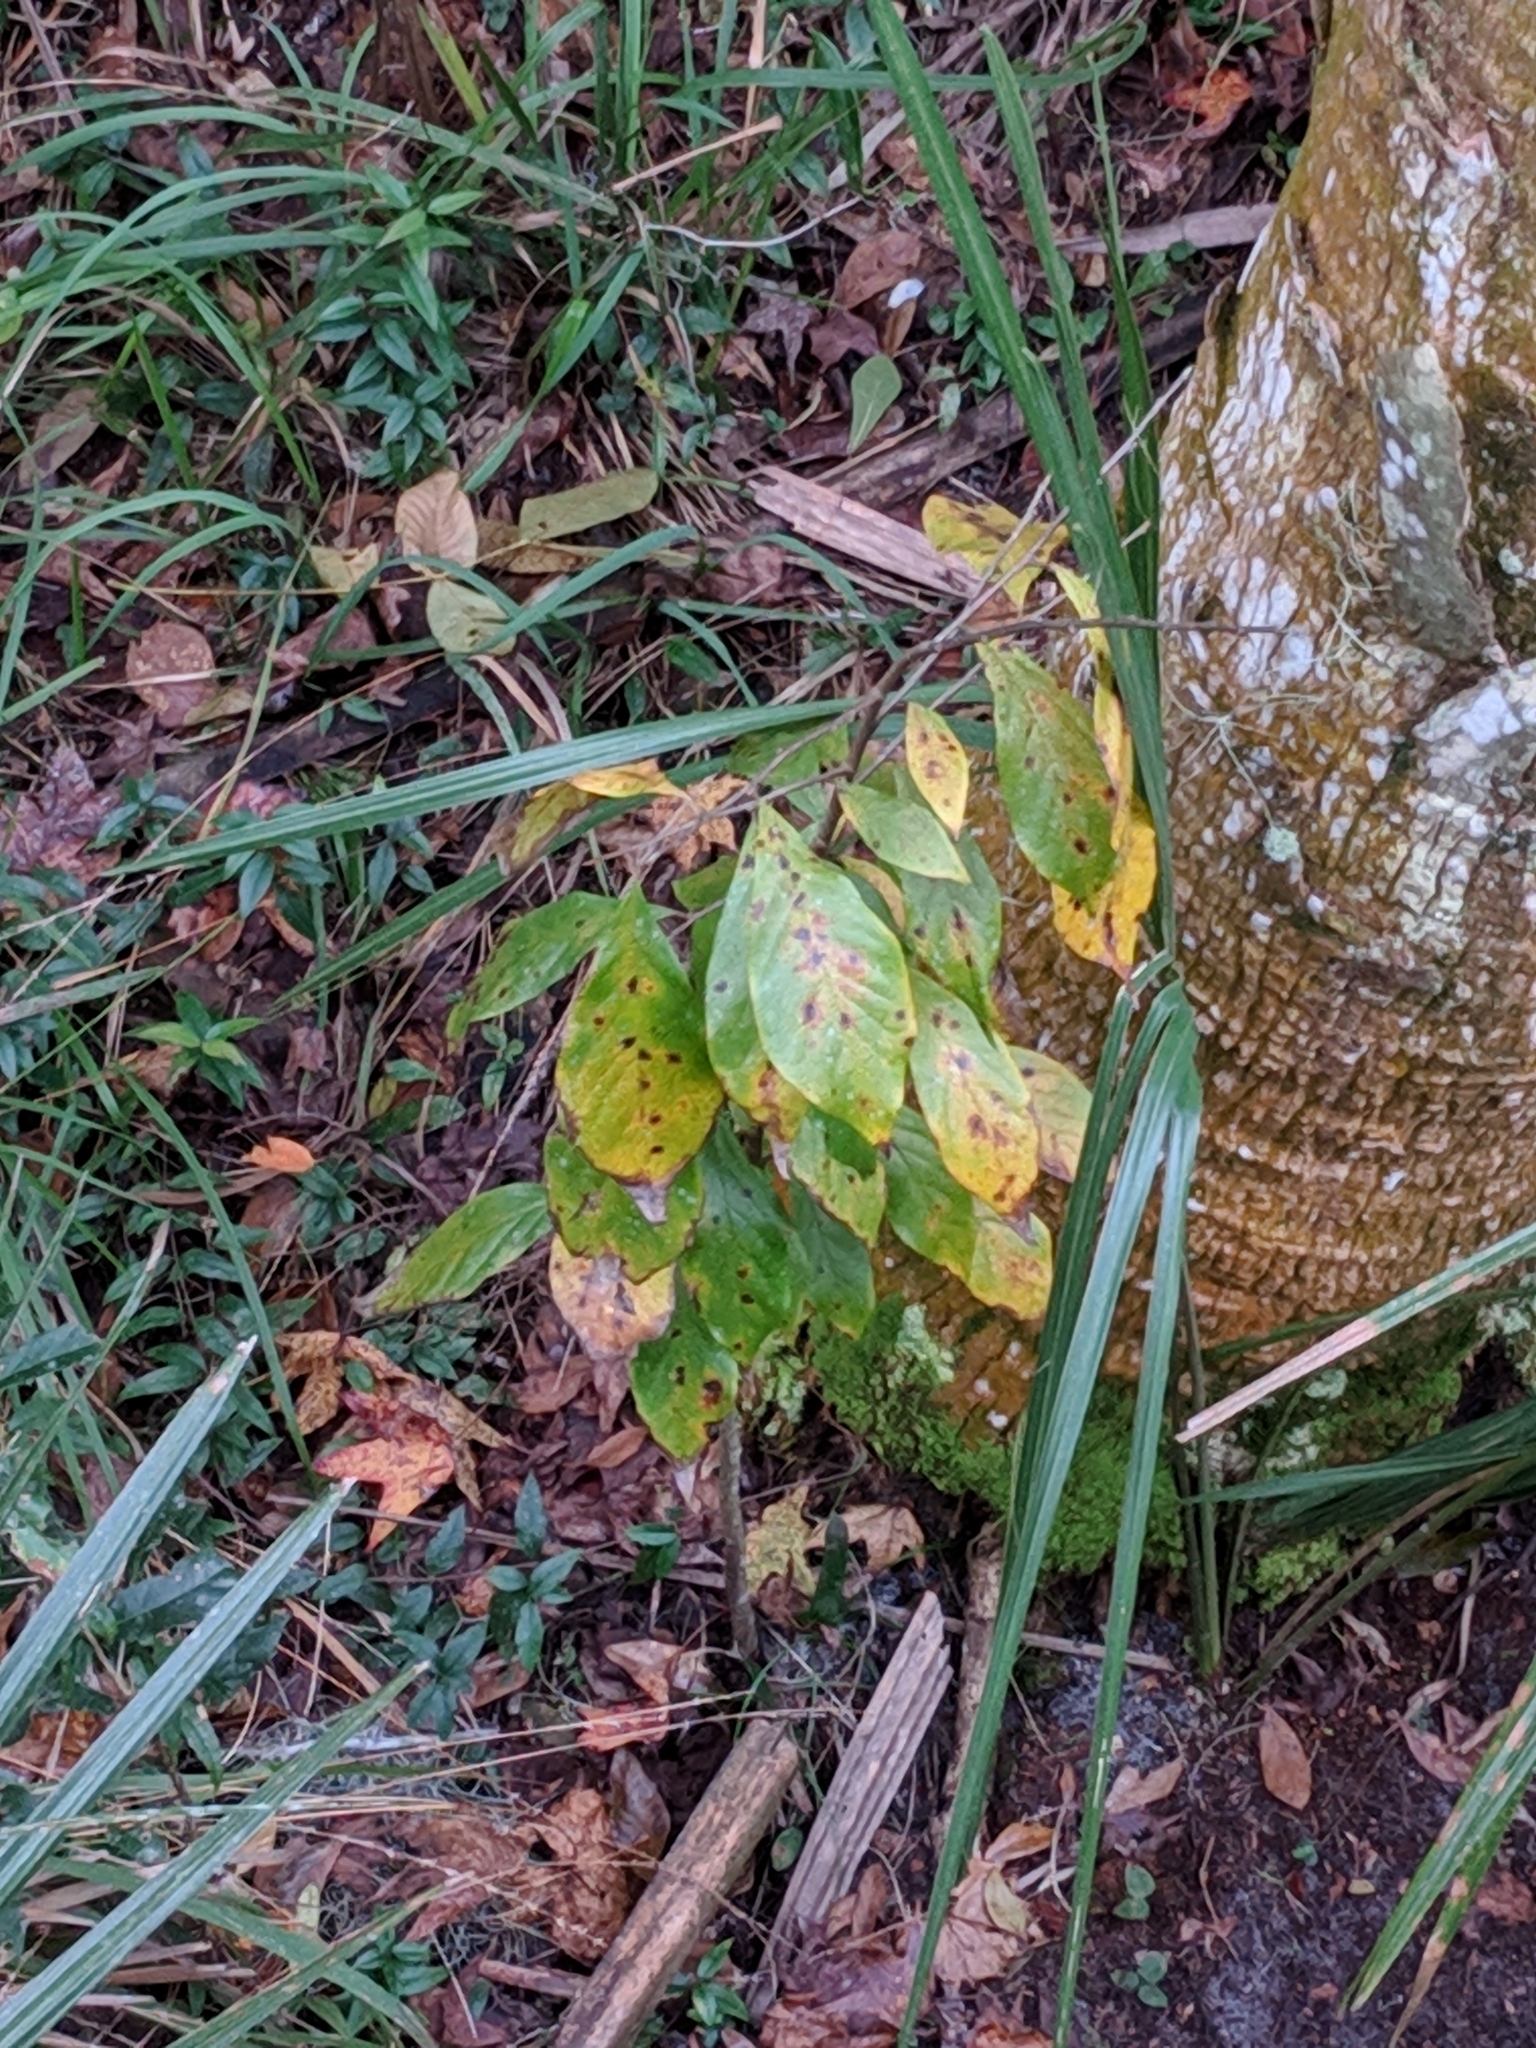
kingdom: Plantae
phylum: Tracheophyta
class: Magnoliopsida
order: Magnoliales
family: Annonaceae
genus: Asimina
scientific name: Asimina parviflora
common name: Dwarf pawpaw
